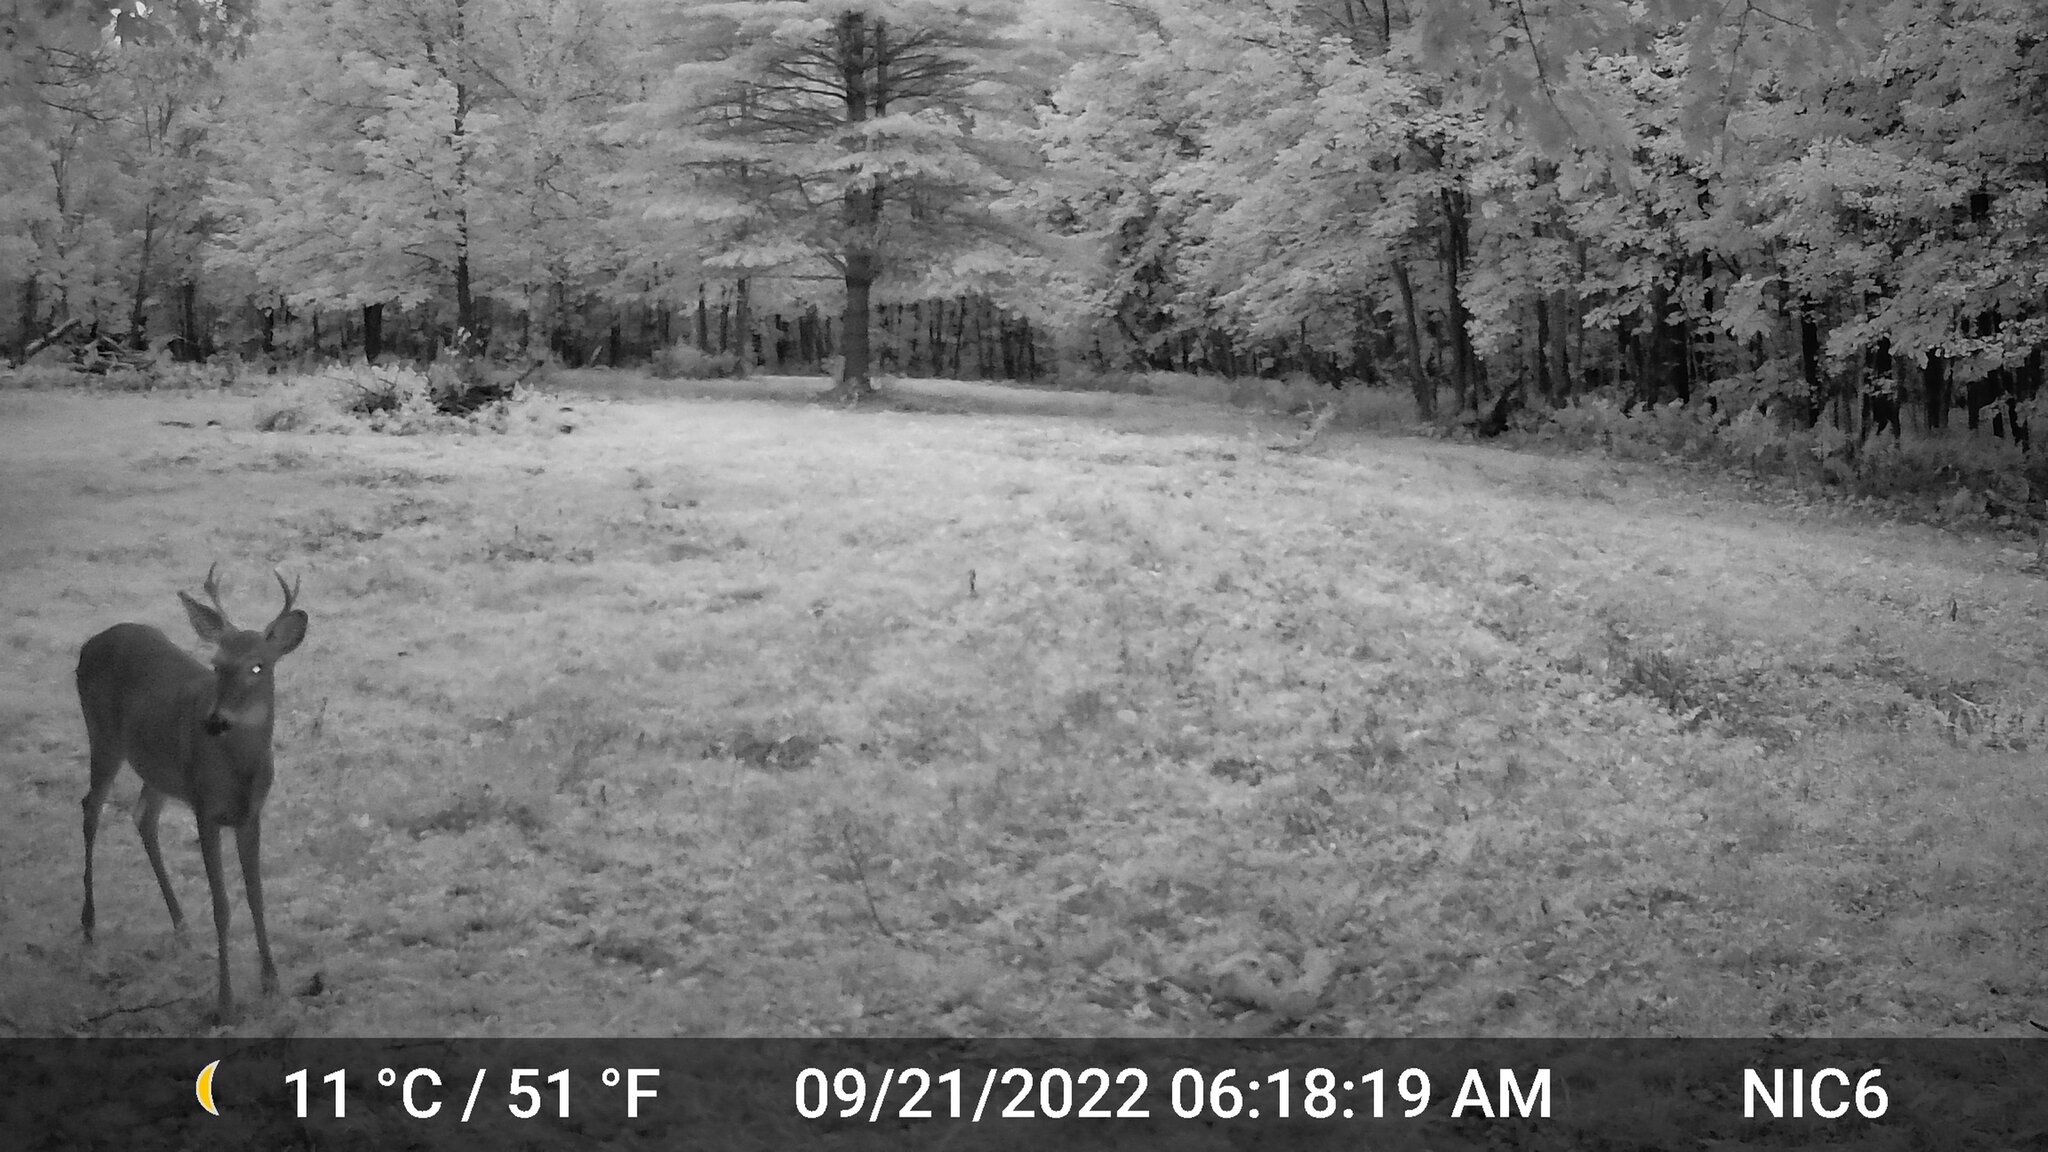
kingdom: Animalia
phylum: Chordata
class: Mammalia
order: Artiodactyla
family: Cervidae
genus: Odocoileus
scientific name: Odocoileus virginianus
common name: White-tailed deer
